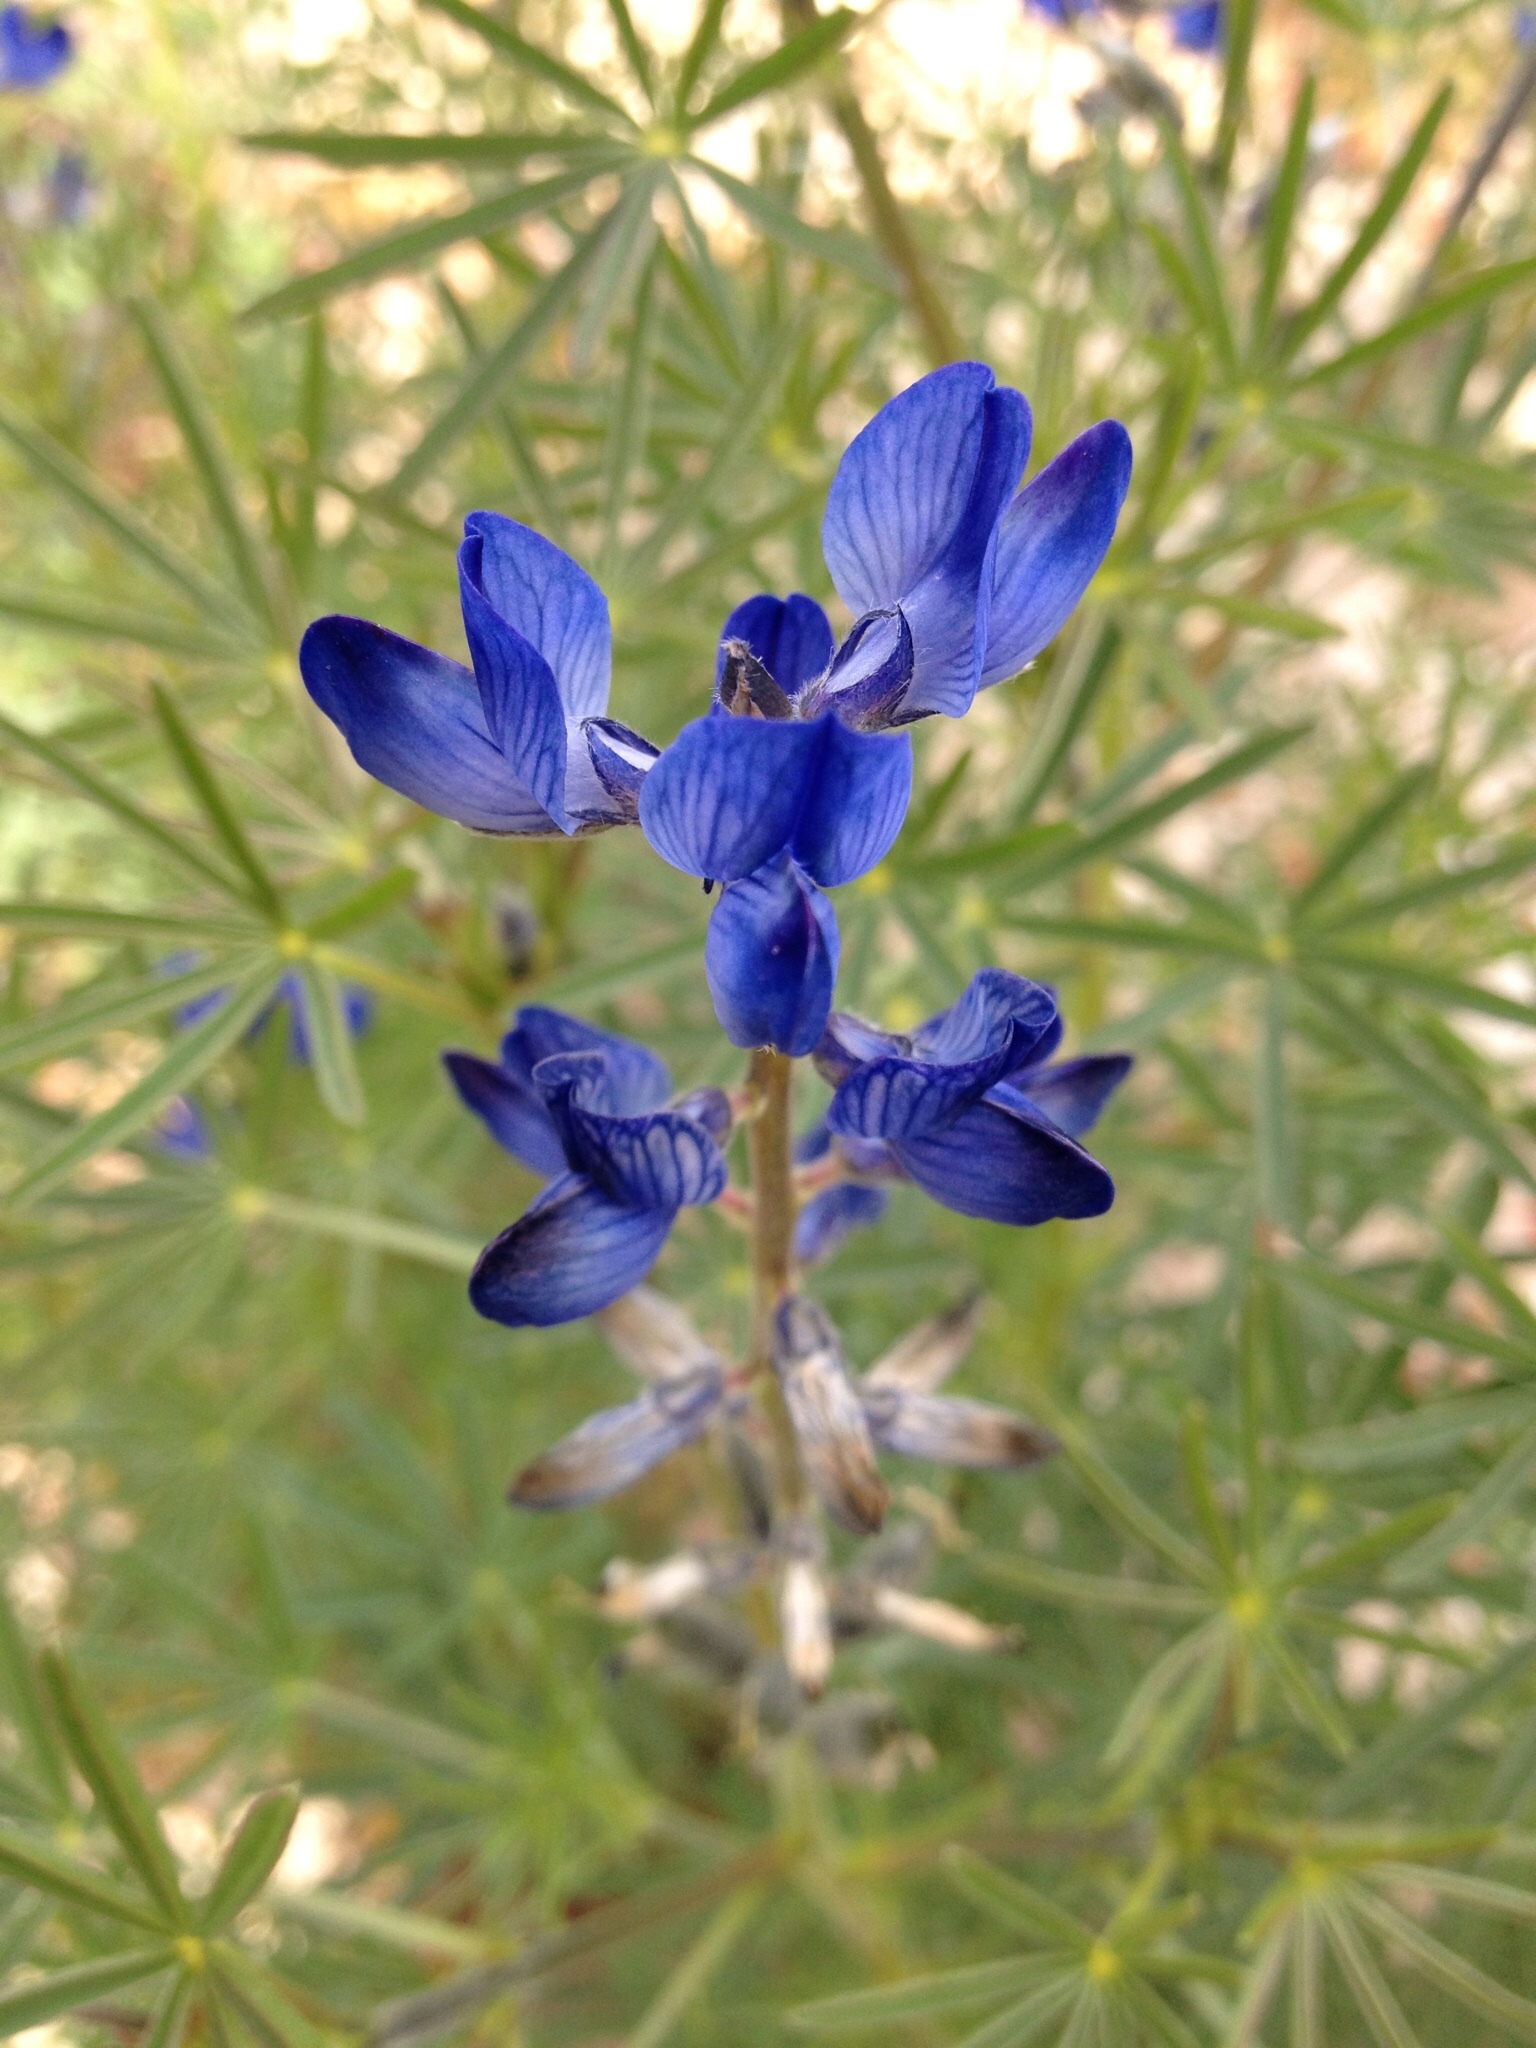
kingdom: Plantae
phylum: Tracheophyta
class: Magnoliopsida
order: Fabales
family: Fabaceae
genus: Lupinus
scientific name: Lupinus angustifolius
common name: Narrow-leaved lupin
